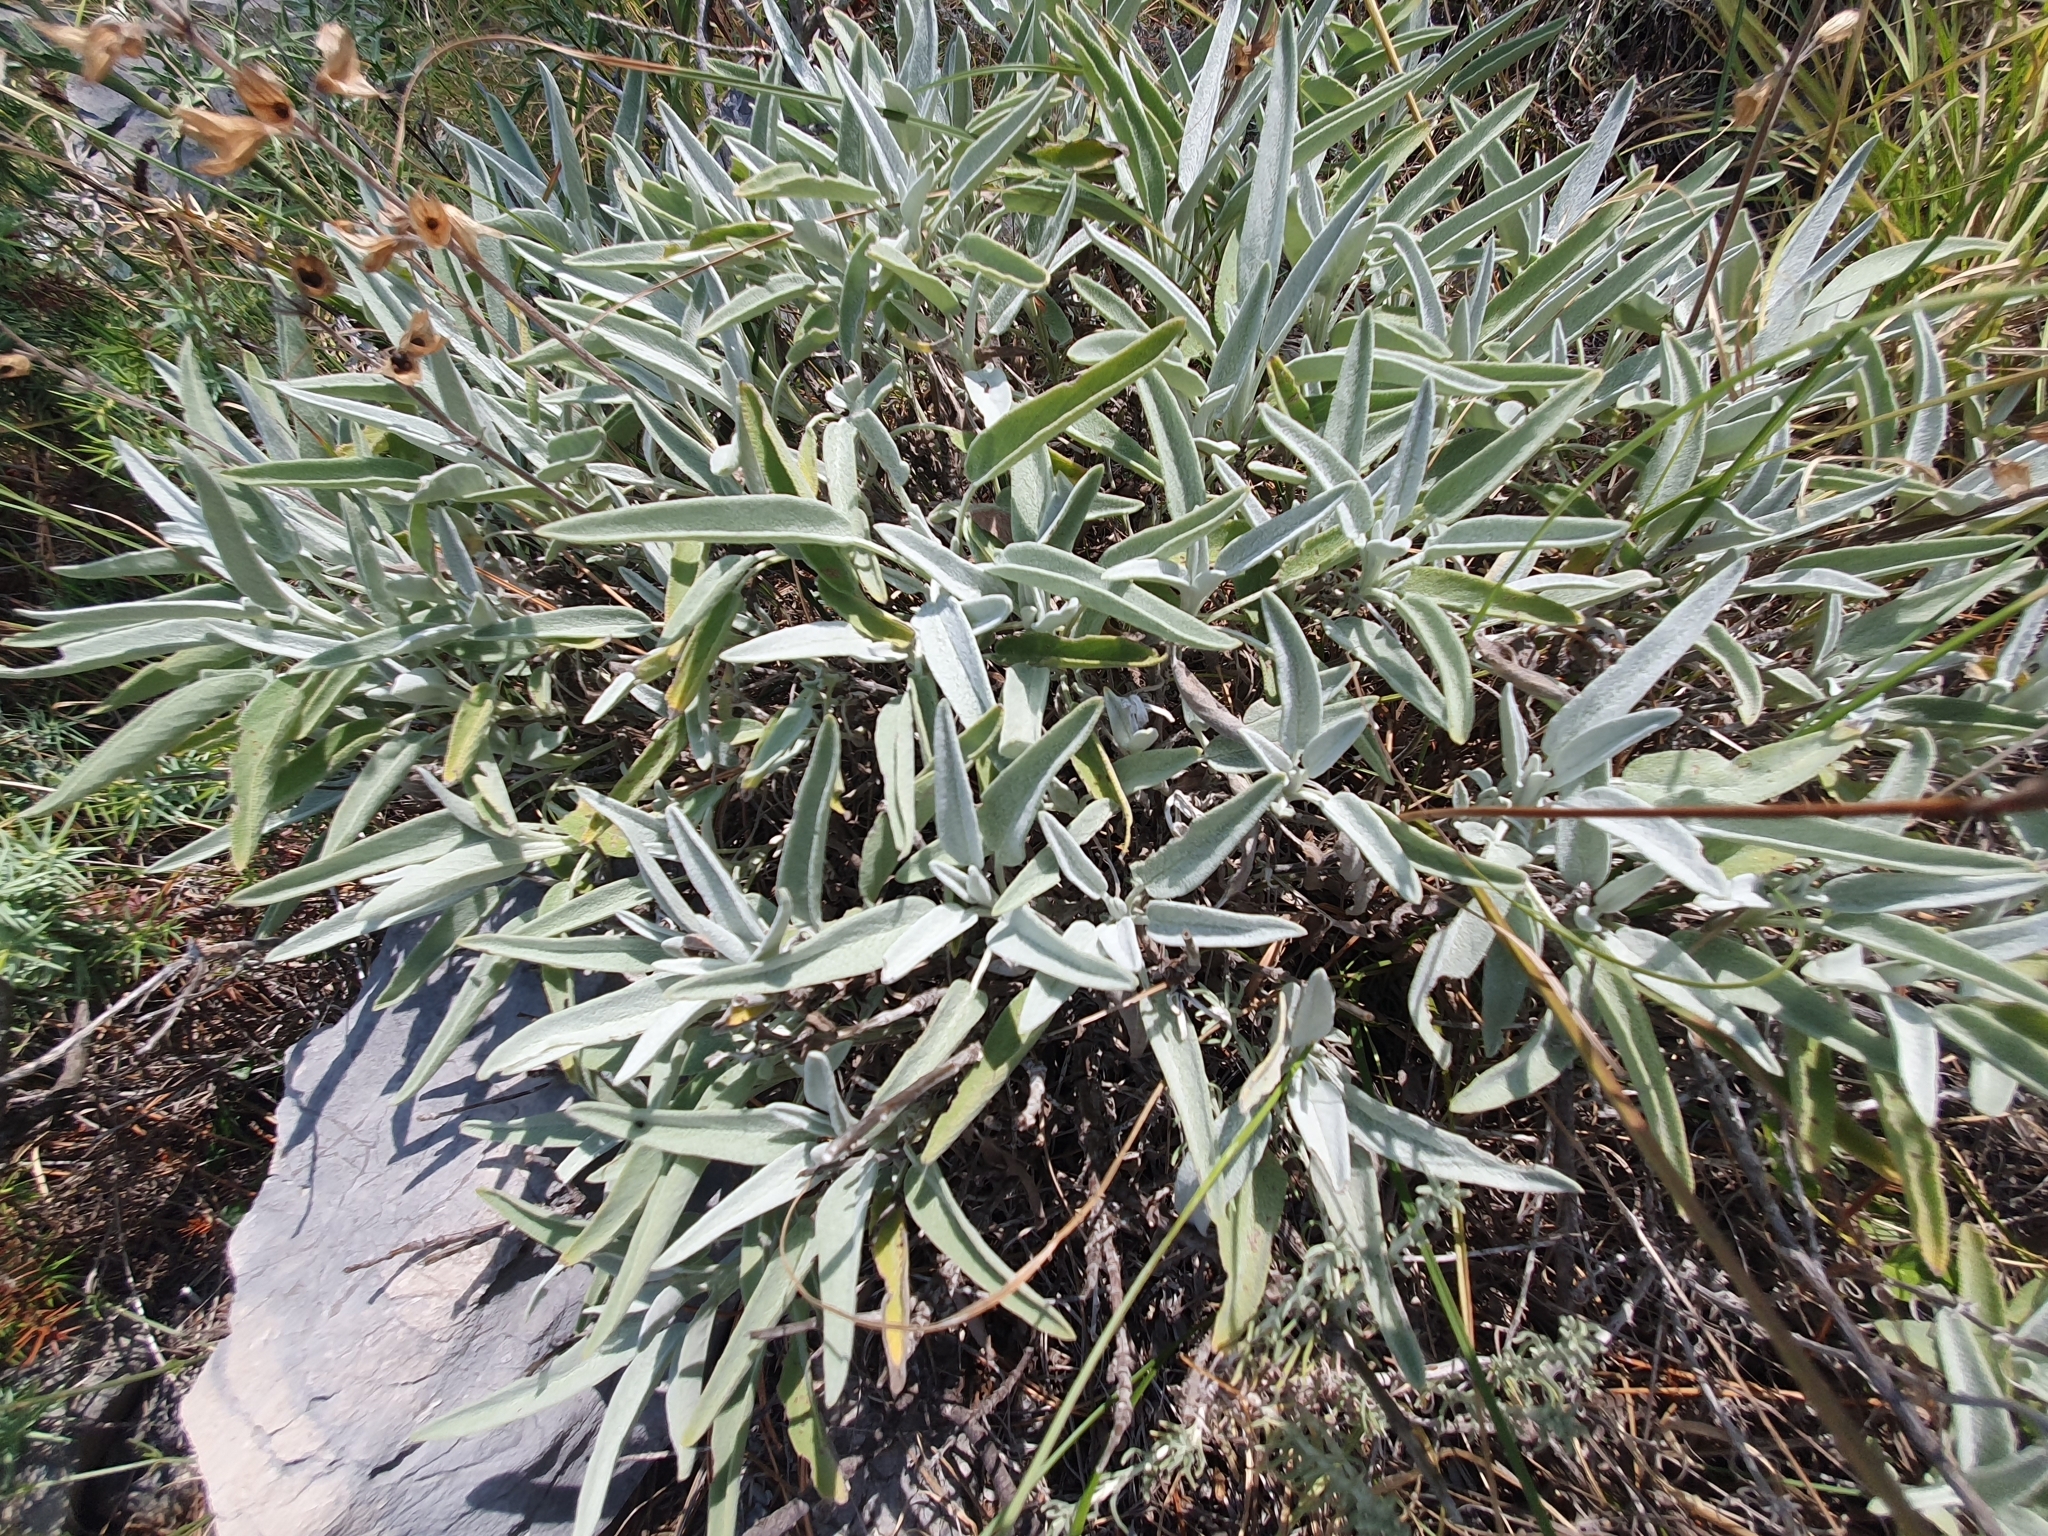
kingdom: Plantae
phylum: Tracheophyta
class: Magnoliopsida
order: Lamiales
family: Lamiaceae
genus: Salvia
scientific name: Salvia officinalis
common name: Sage
